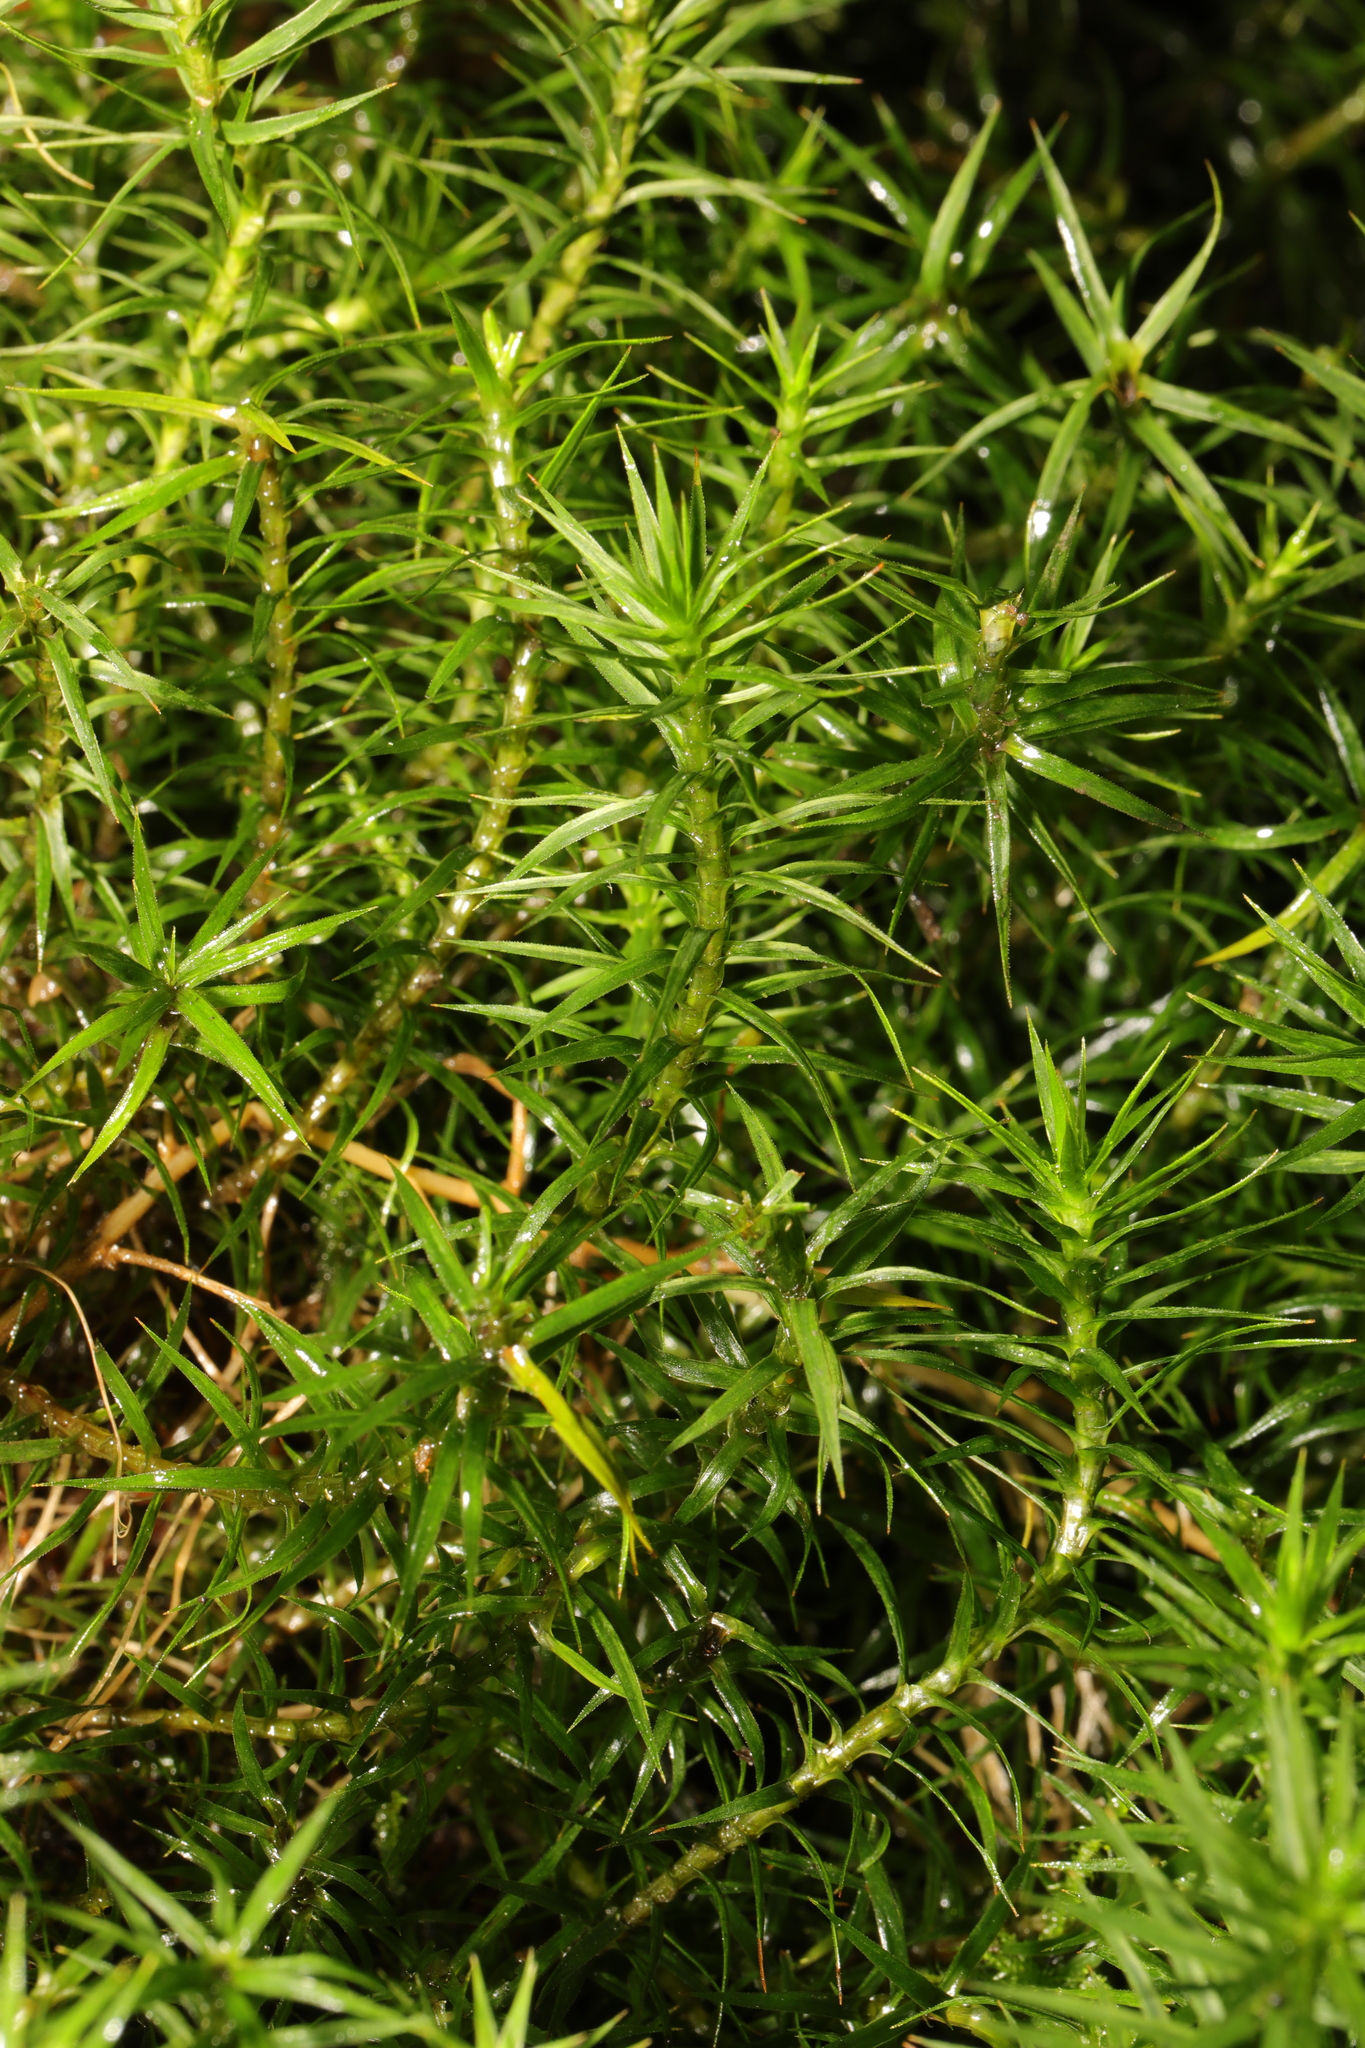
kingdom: Plantae
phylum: Bryophyta
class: Polytrichopsida
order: Polytrichales
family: Polytrichaceae
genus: Polytrichum
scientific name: Polytrichum formosum
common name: Bank haircap moss
